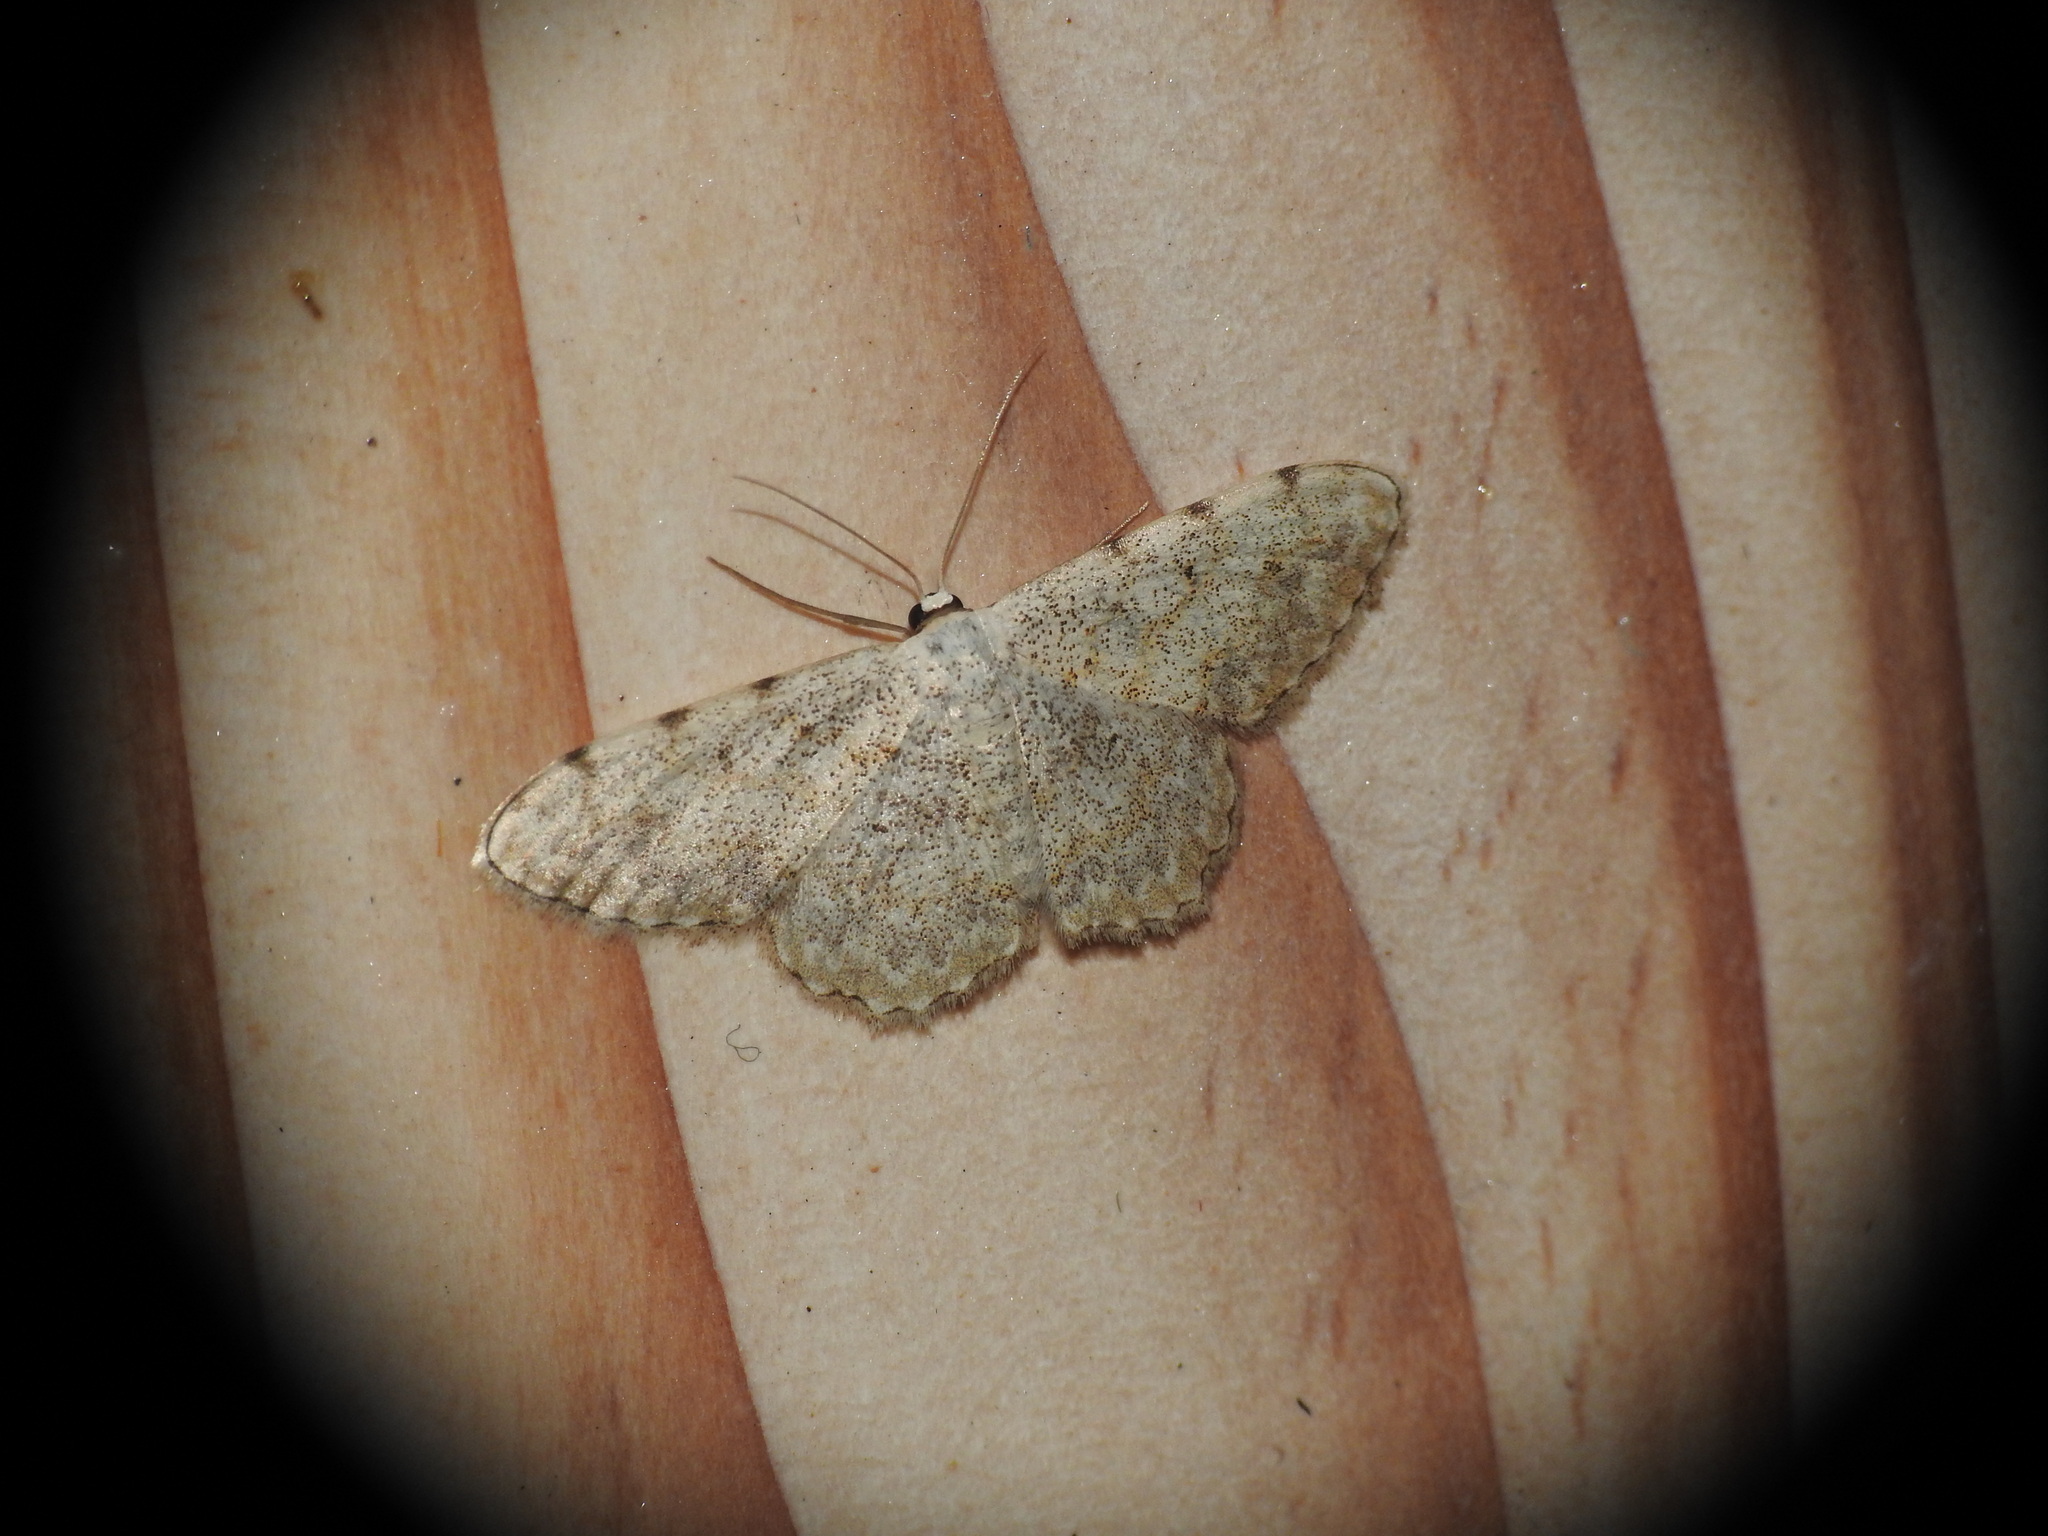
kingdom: Animalia
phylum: Arthropoda
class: Insecta
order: Lepidoptera
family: Geometridae
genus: Scopula
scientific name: Scopula submutata
